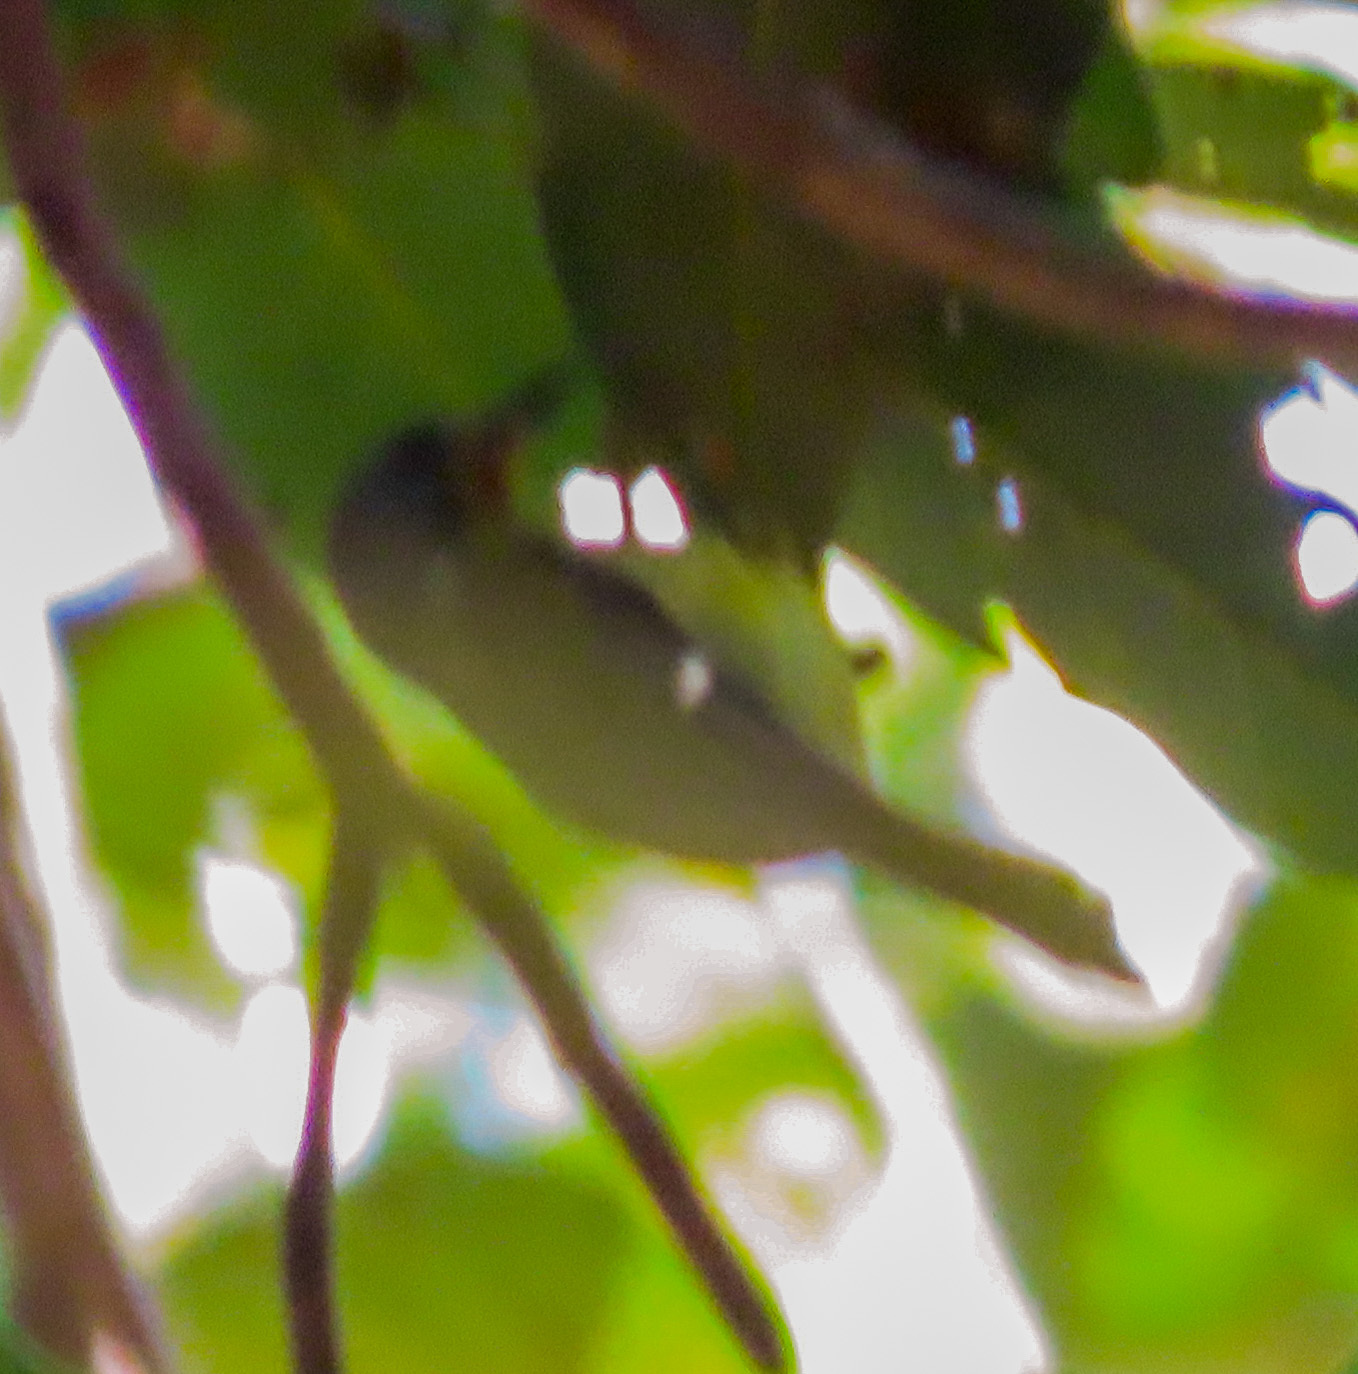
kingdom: Animalia
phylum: Chordata
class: Aves
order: Passeriformes
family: Nectariniidae
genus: Chalcoparia
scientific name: Chalcoparia singalensis
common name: Ruby-cheeked sunbird
